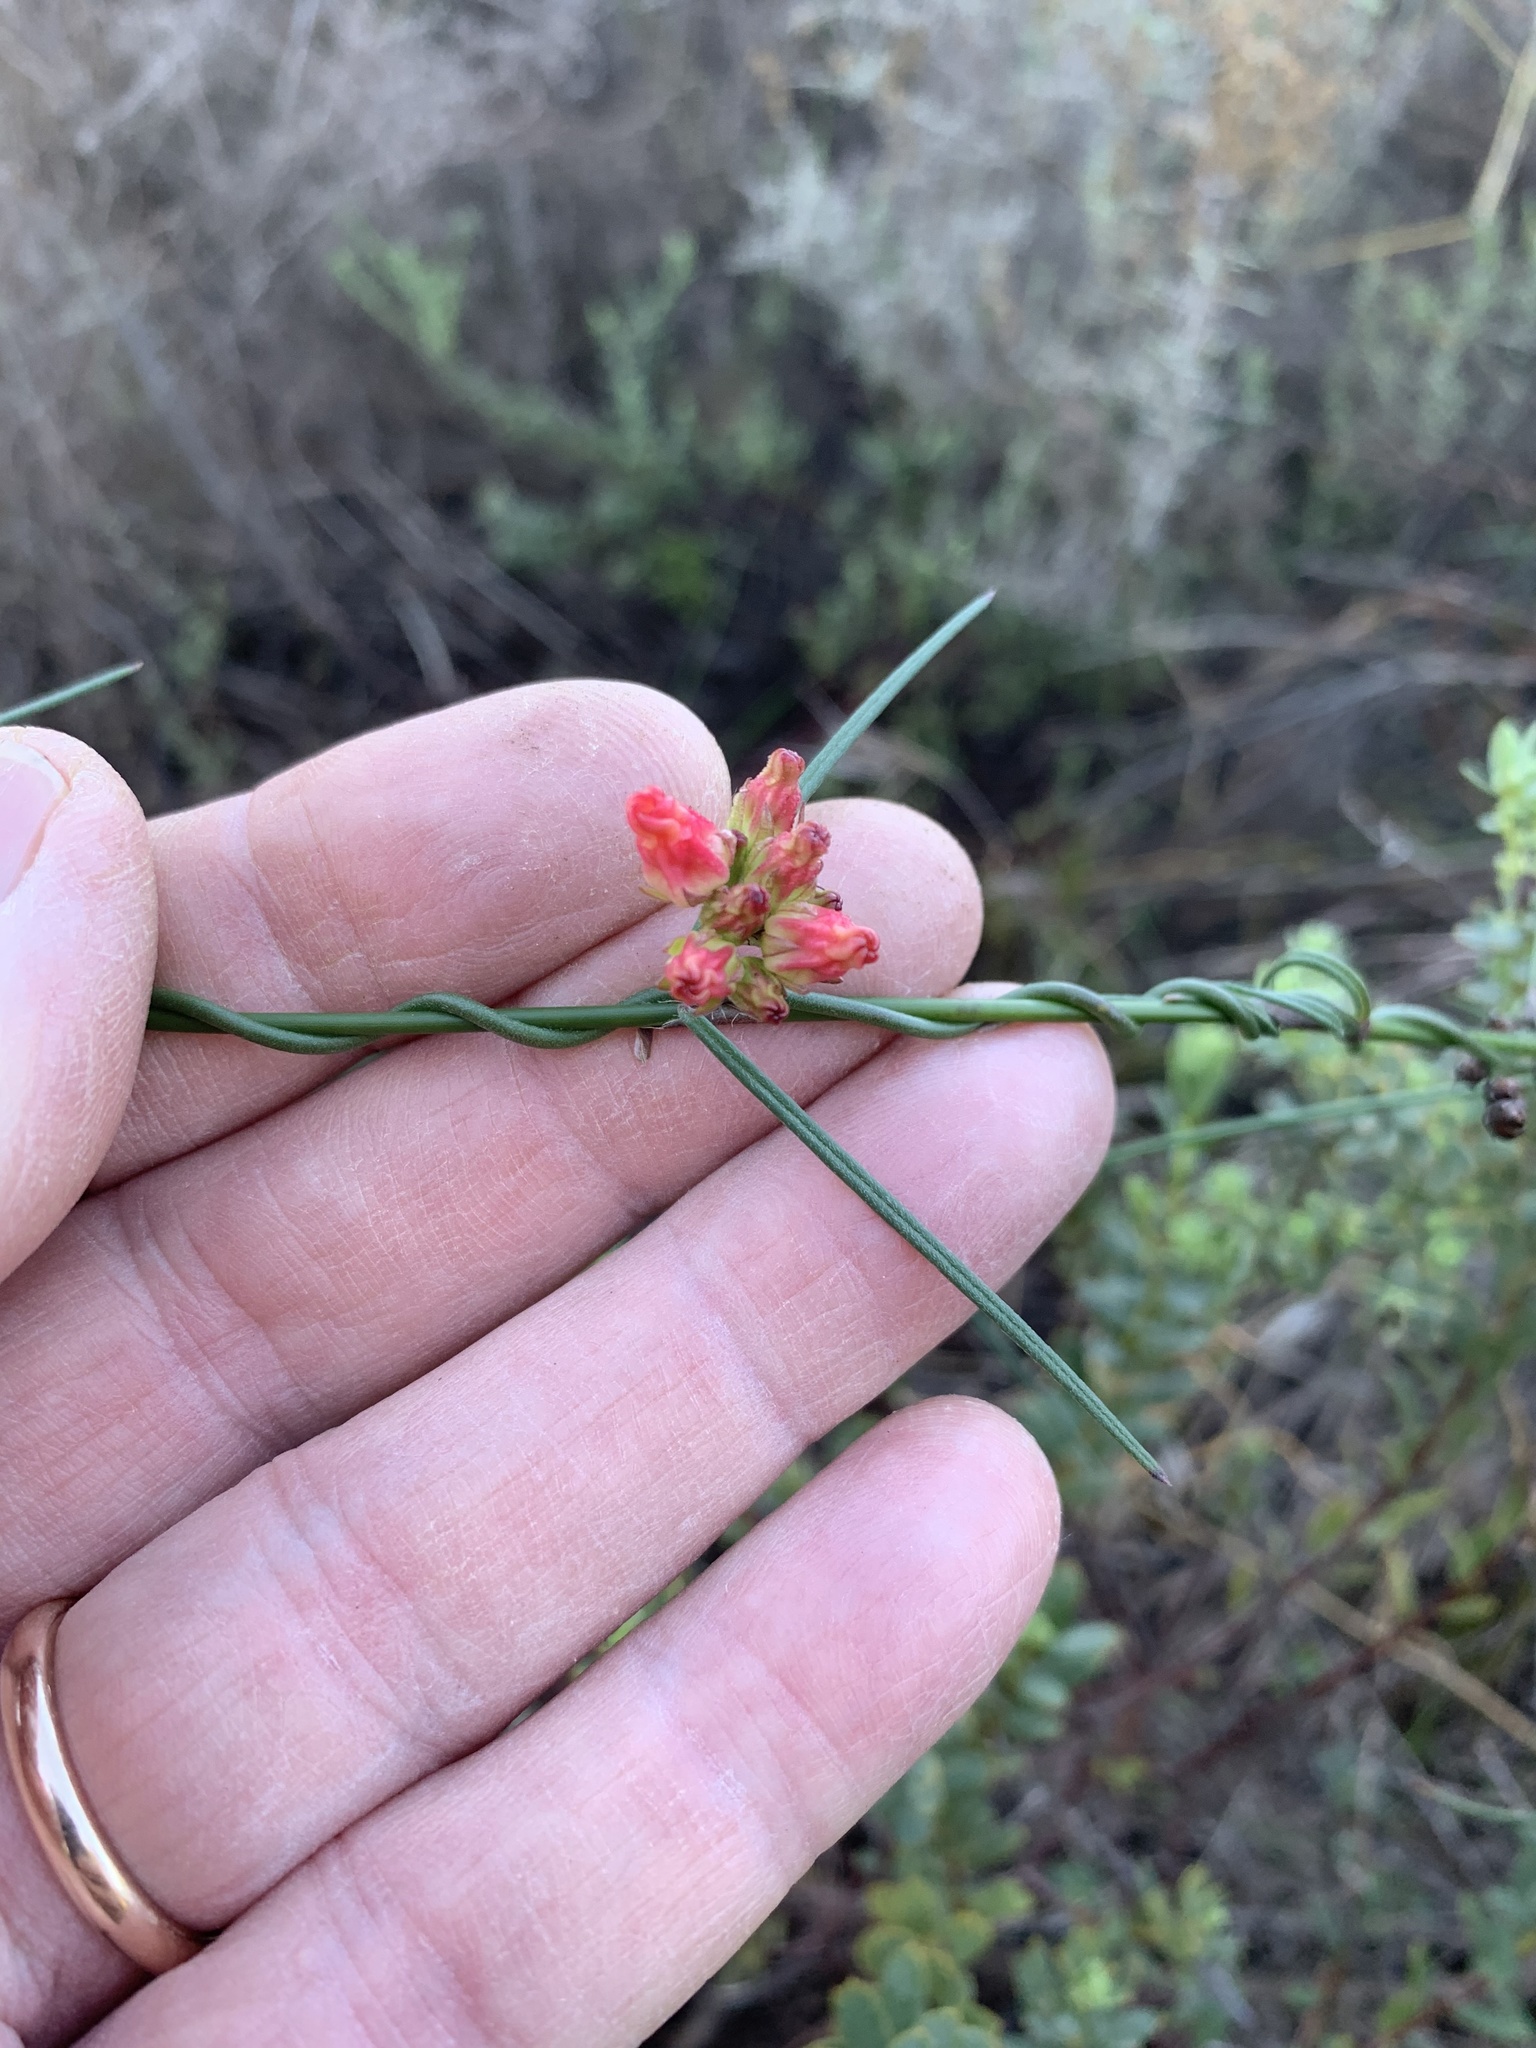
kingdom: Plantae
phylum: Tracheophyta
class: Magnoliopsida
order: Gentianales
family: Apocynaceae
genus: Microloma
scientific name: Microloma tenuifolium
